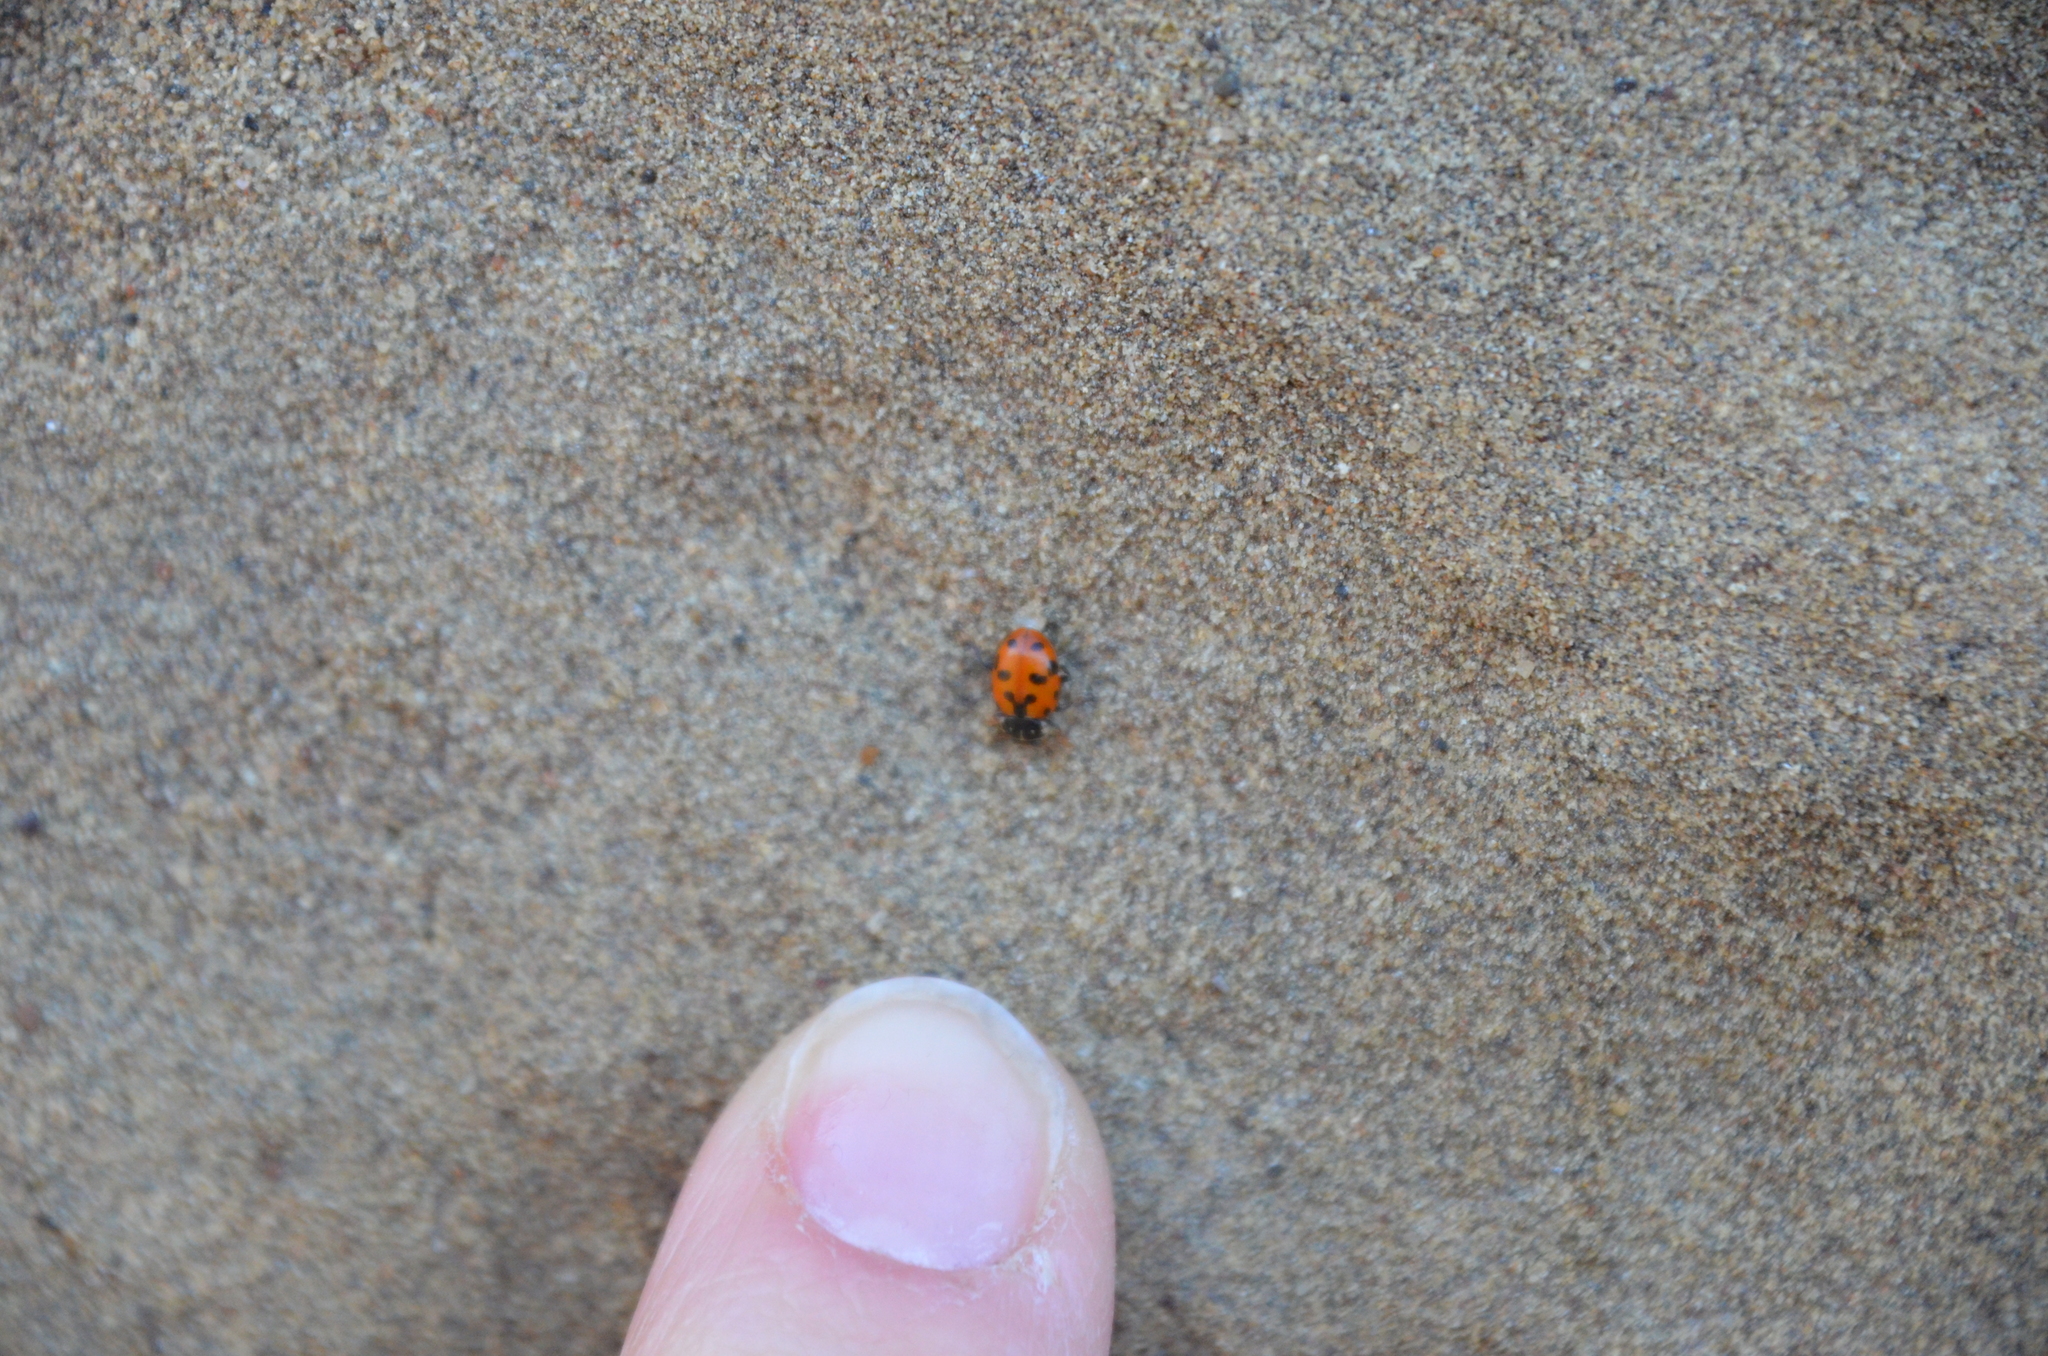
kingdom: Animalia
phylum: Arthropoda
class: Insecta
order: Coleoptera
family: Coccinellidae
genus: Hippodamia
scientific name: Hippodamia variegata
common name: Ladybird beetle
